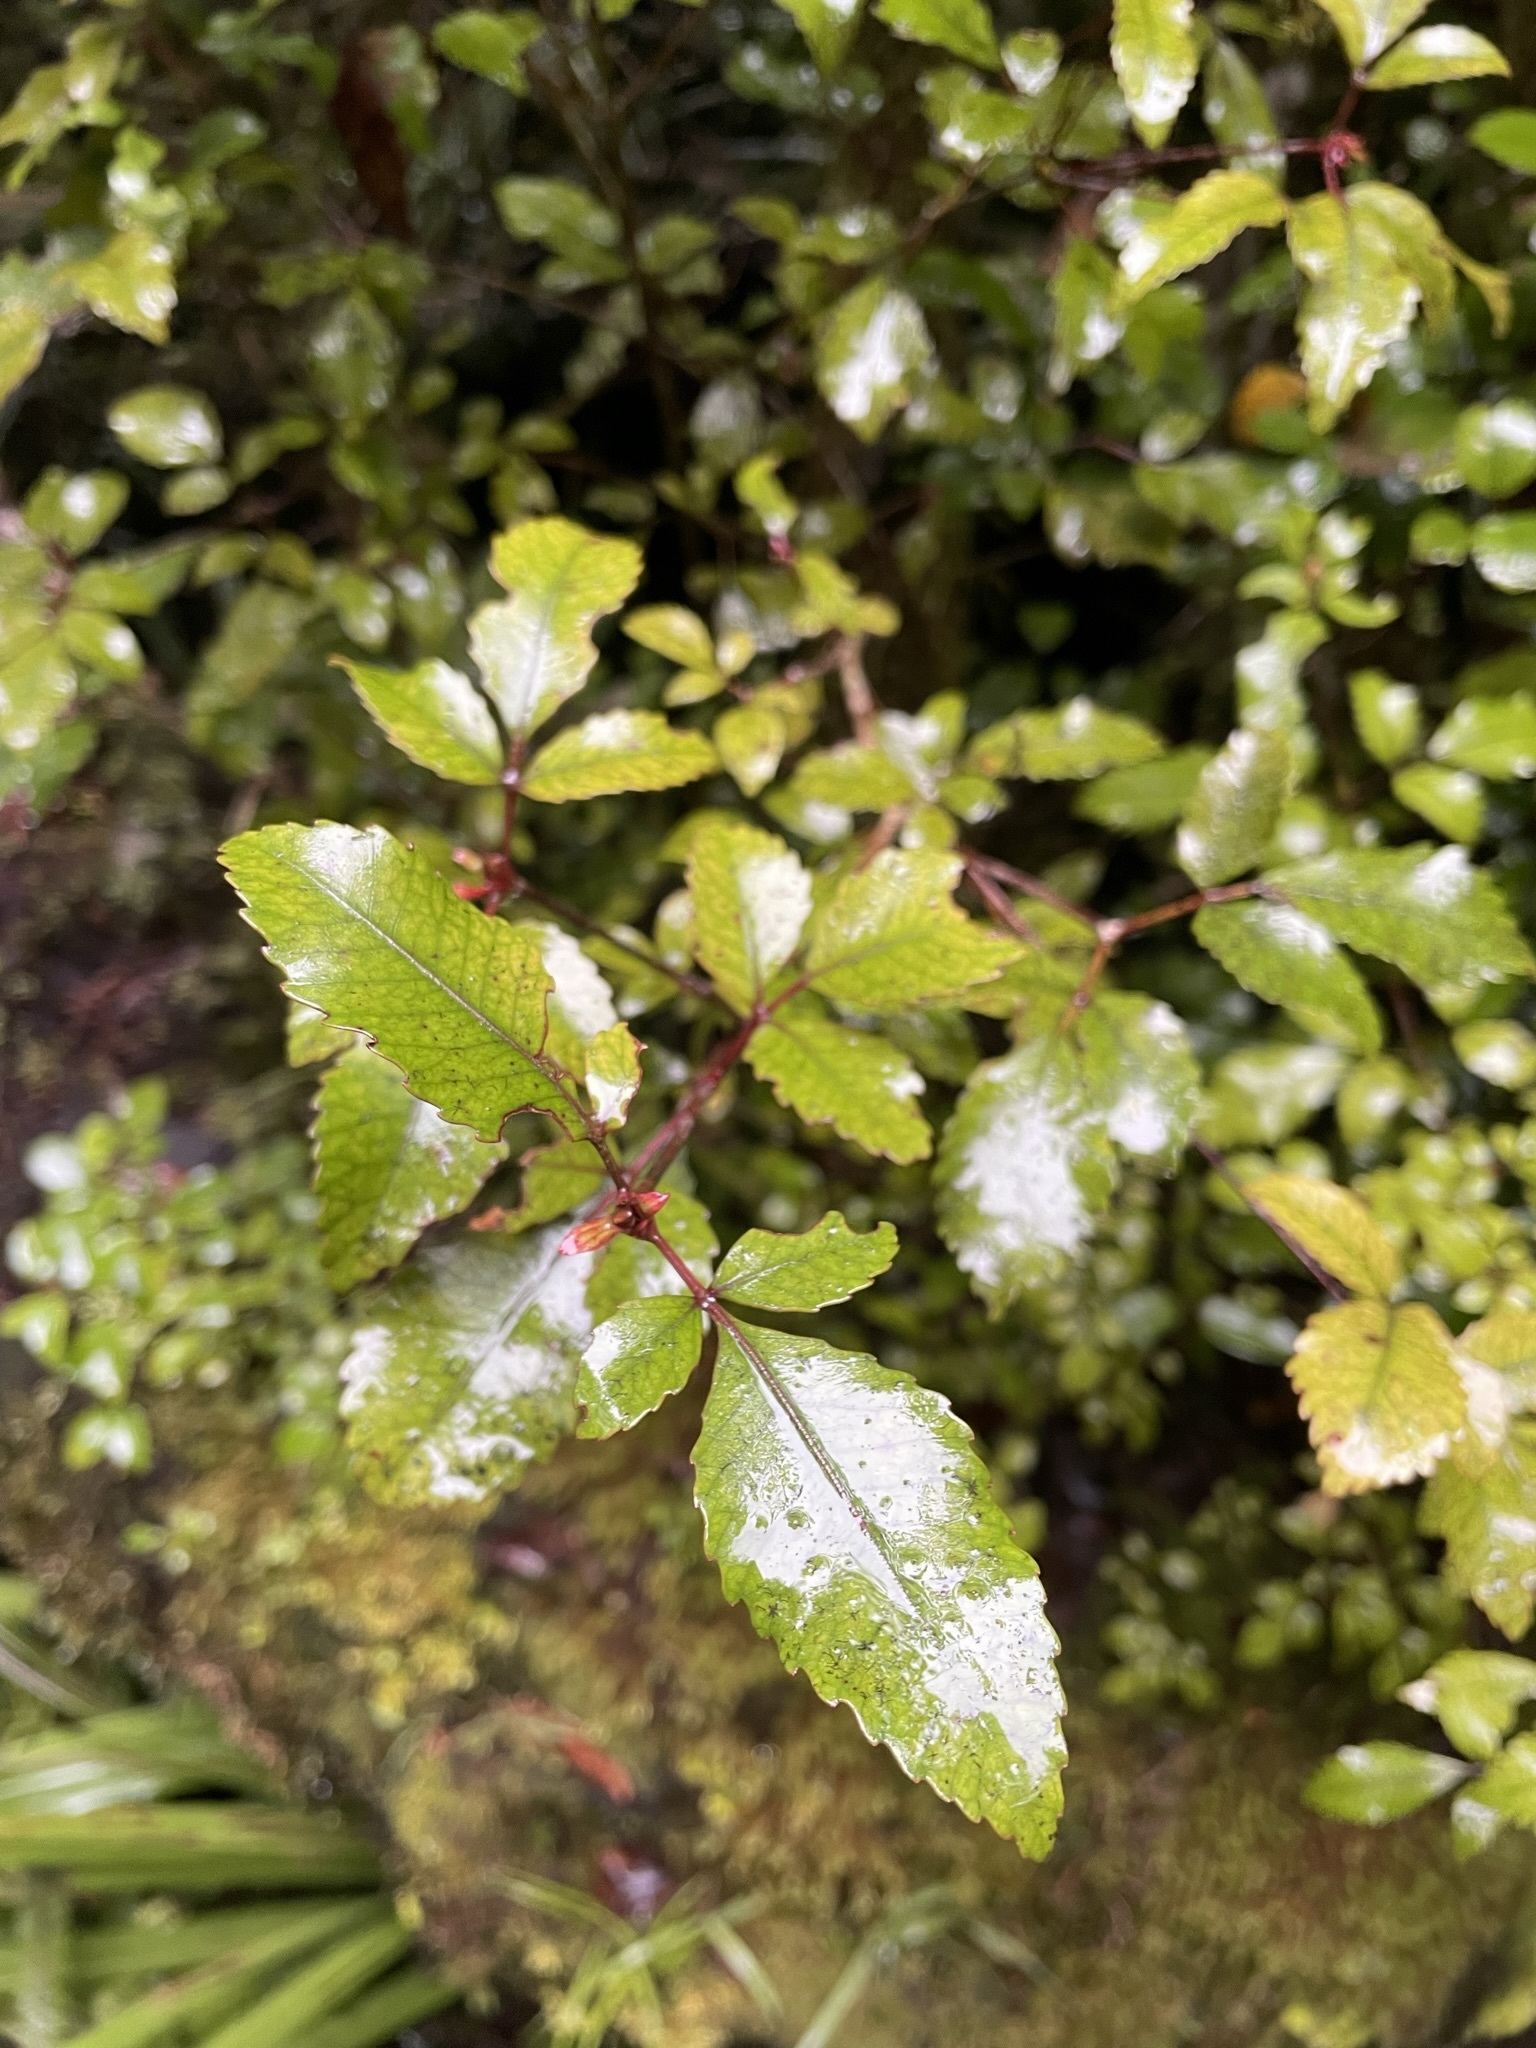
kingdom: Plantae
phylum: Tracheophyta
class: Magnoliopsida
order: Oxalidales
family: Cunoniaceae
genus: Pterophylla
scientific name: Pterophylla racemosa
